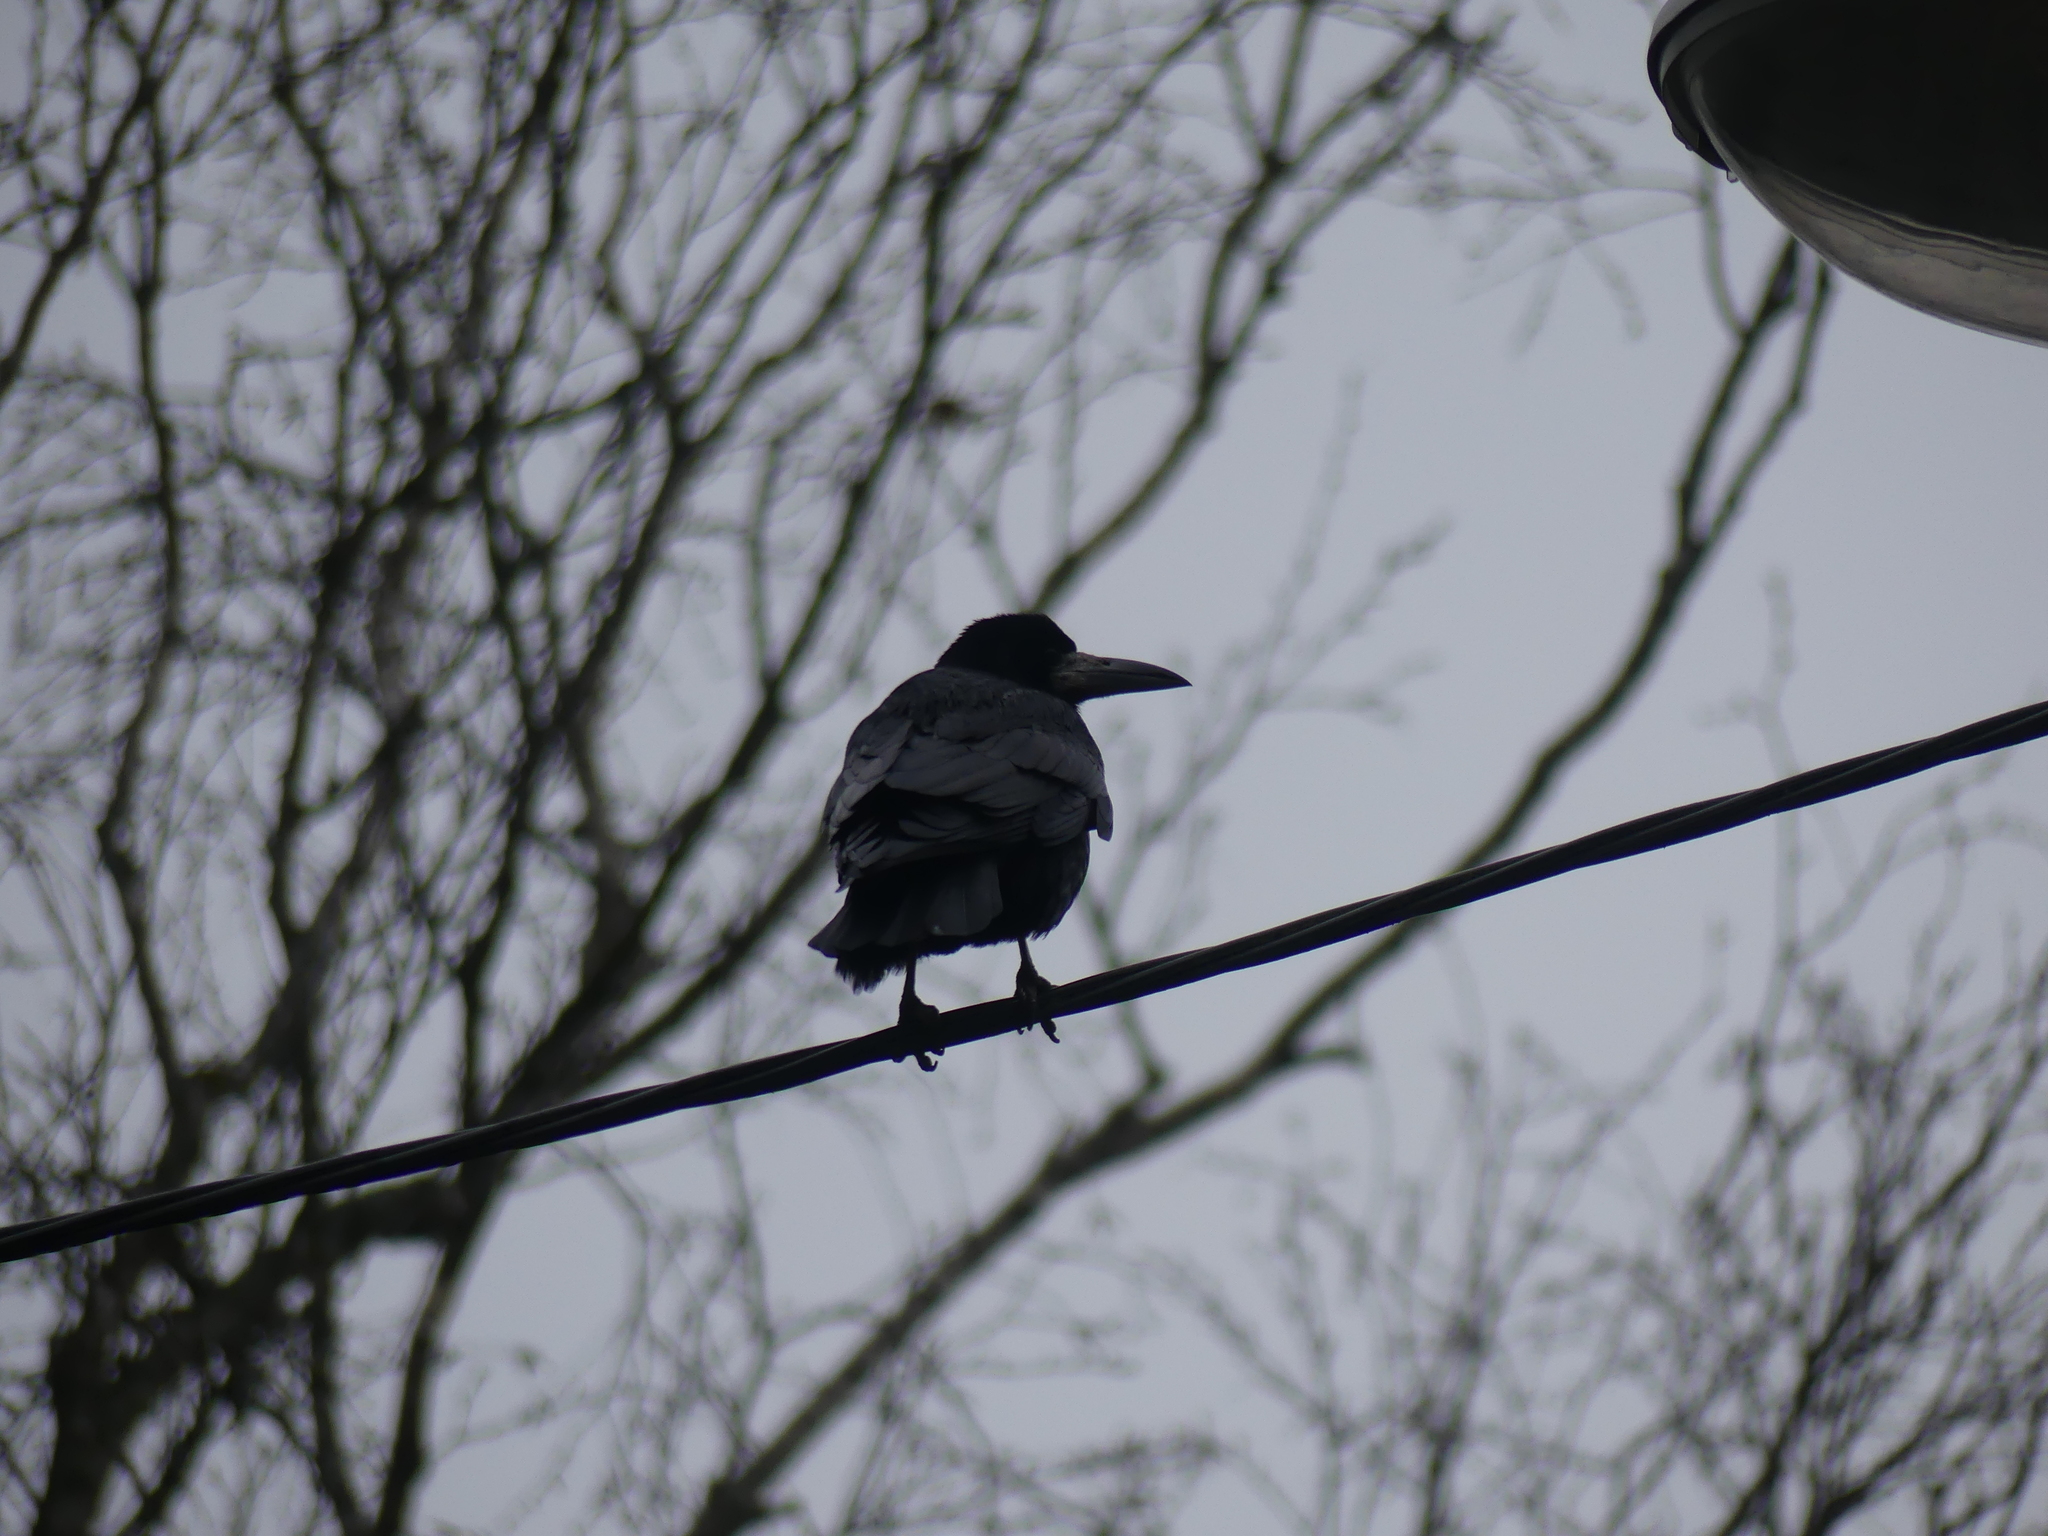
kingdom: Animalia
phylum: Chordata
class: Aves
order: Passeriformes
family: Corvidae
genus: Corvus
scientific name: Corvus frugilegus
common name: Rook
